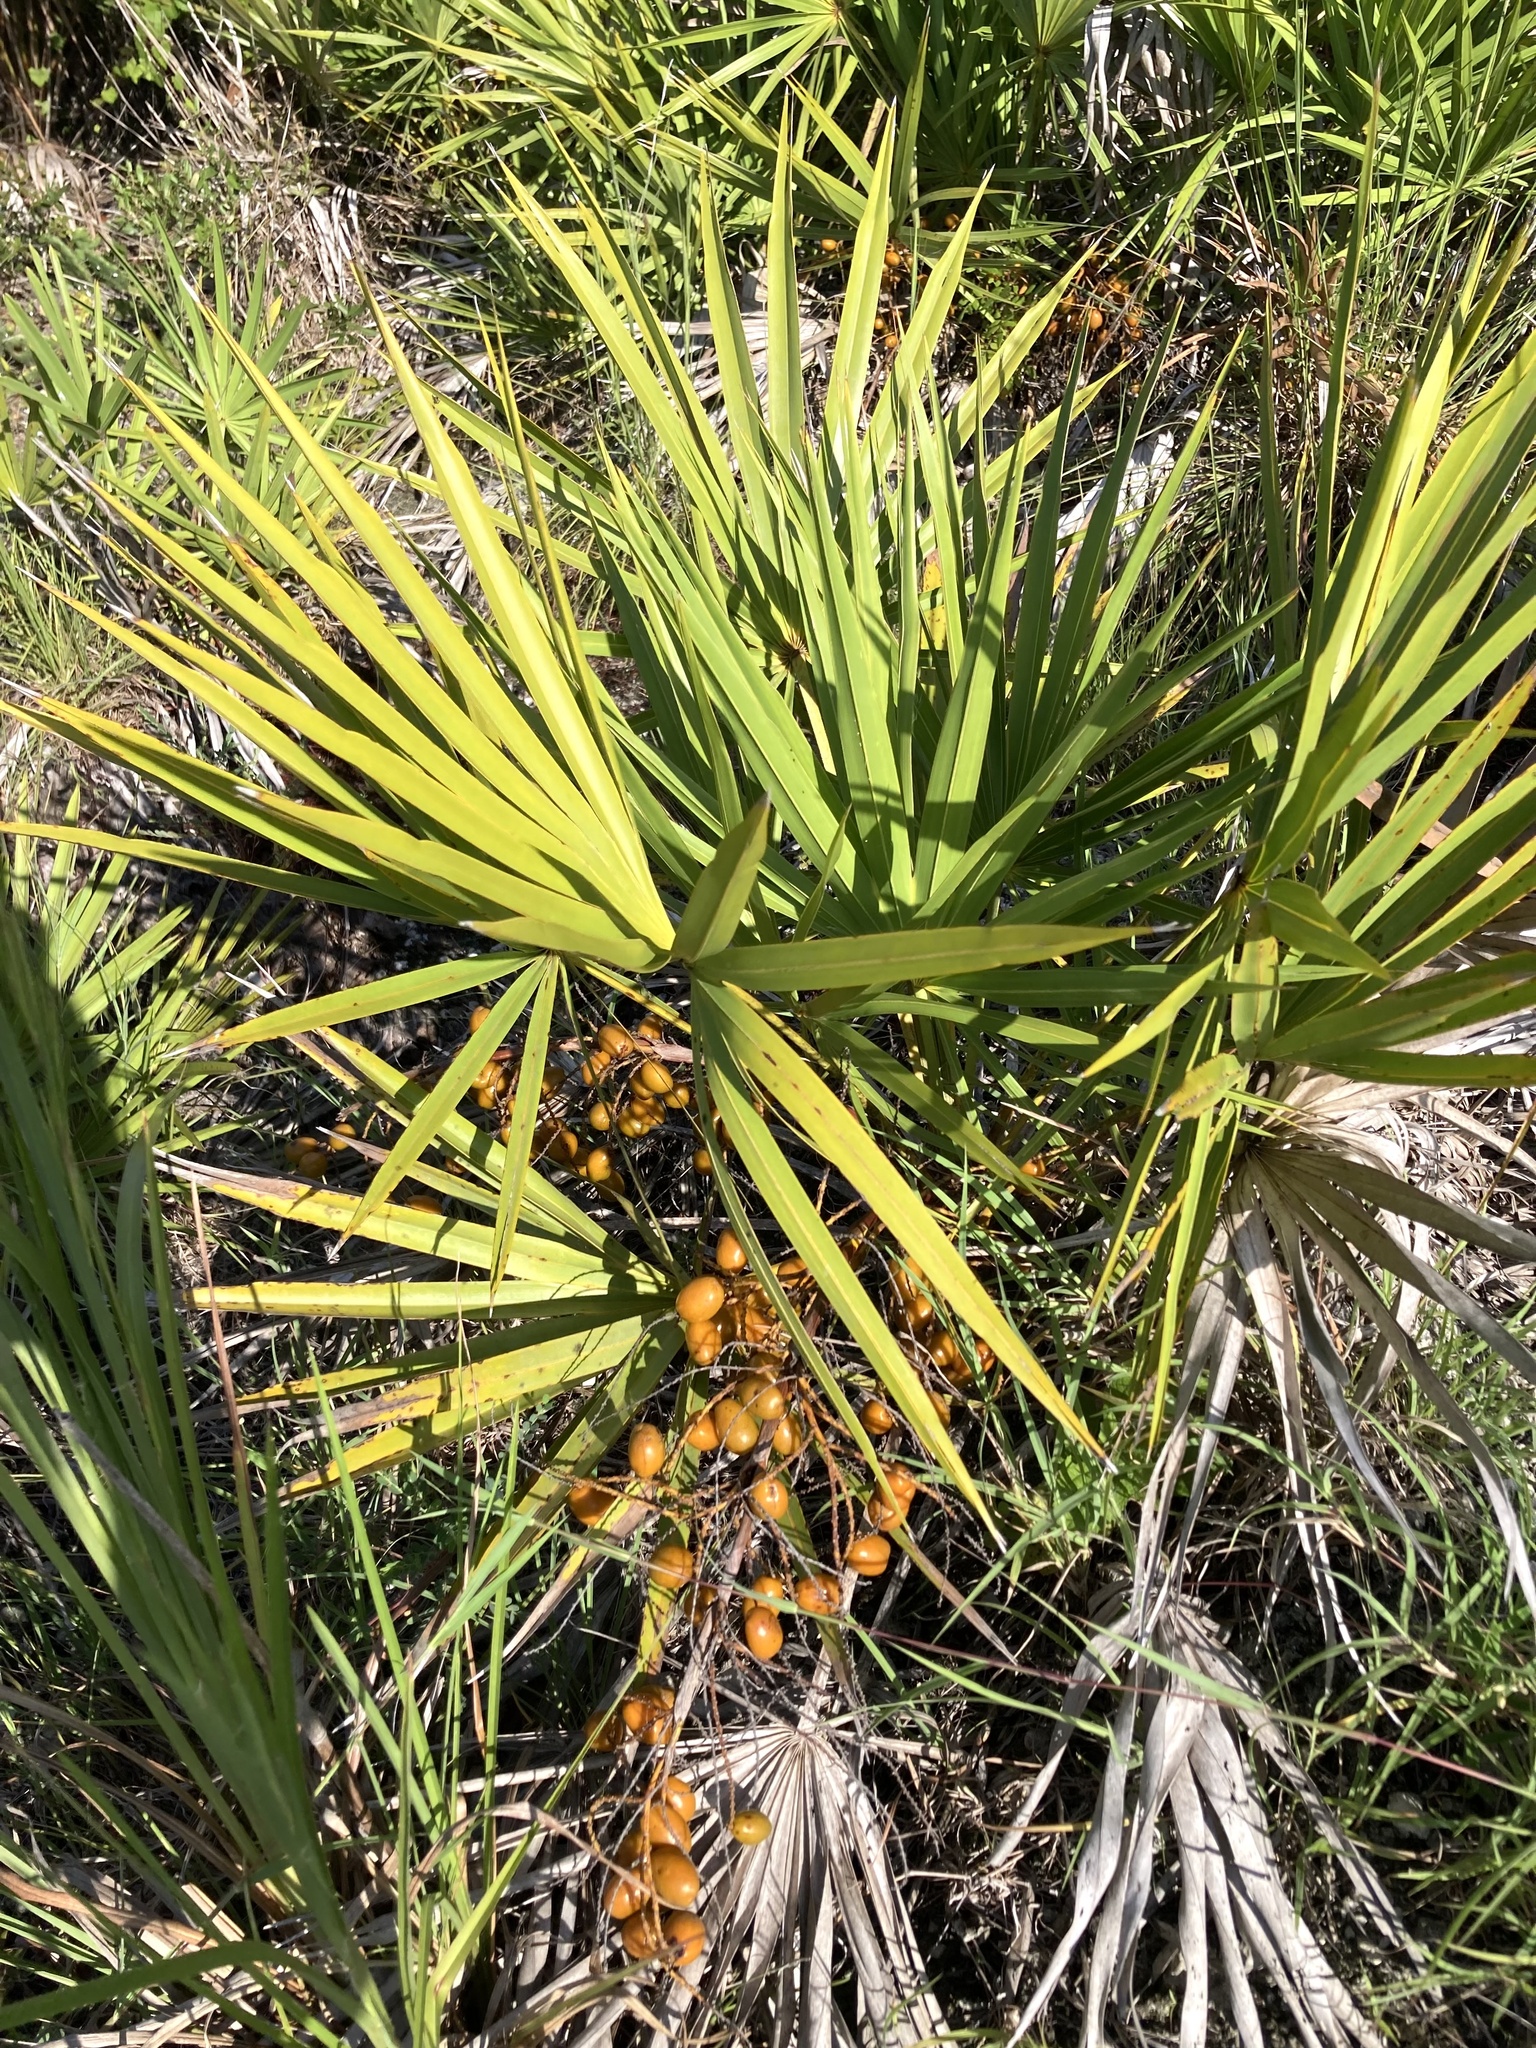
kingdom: Plantae
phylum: Tracheophyta
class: Liliopsida
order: Arecales
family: Arecaceae
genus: Serenoa
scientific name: Serenoa repens
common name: Saw-palmetto
